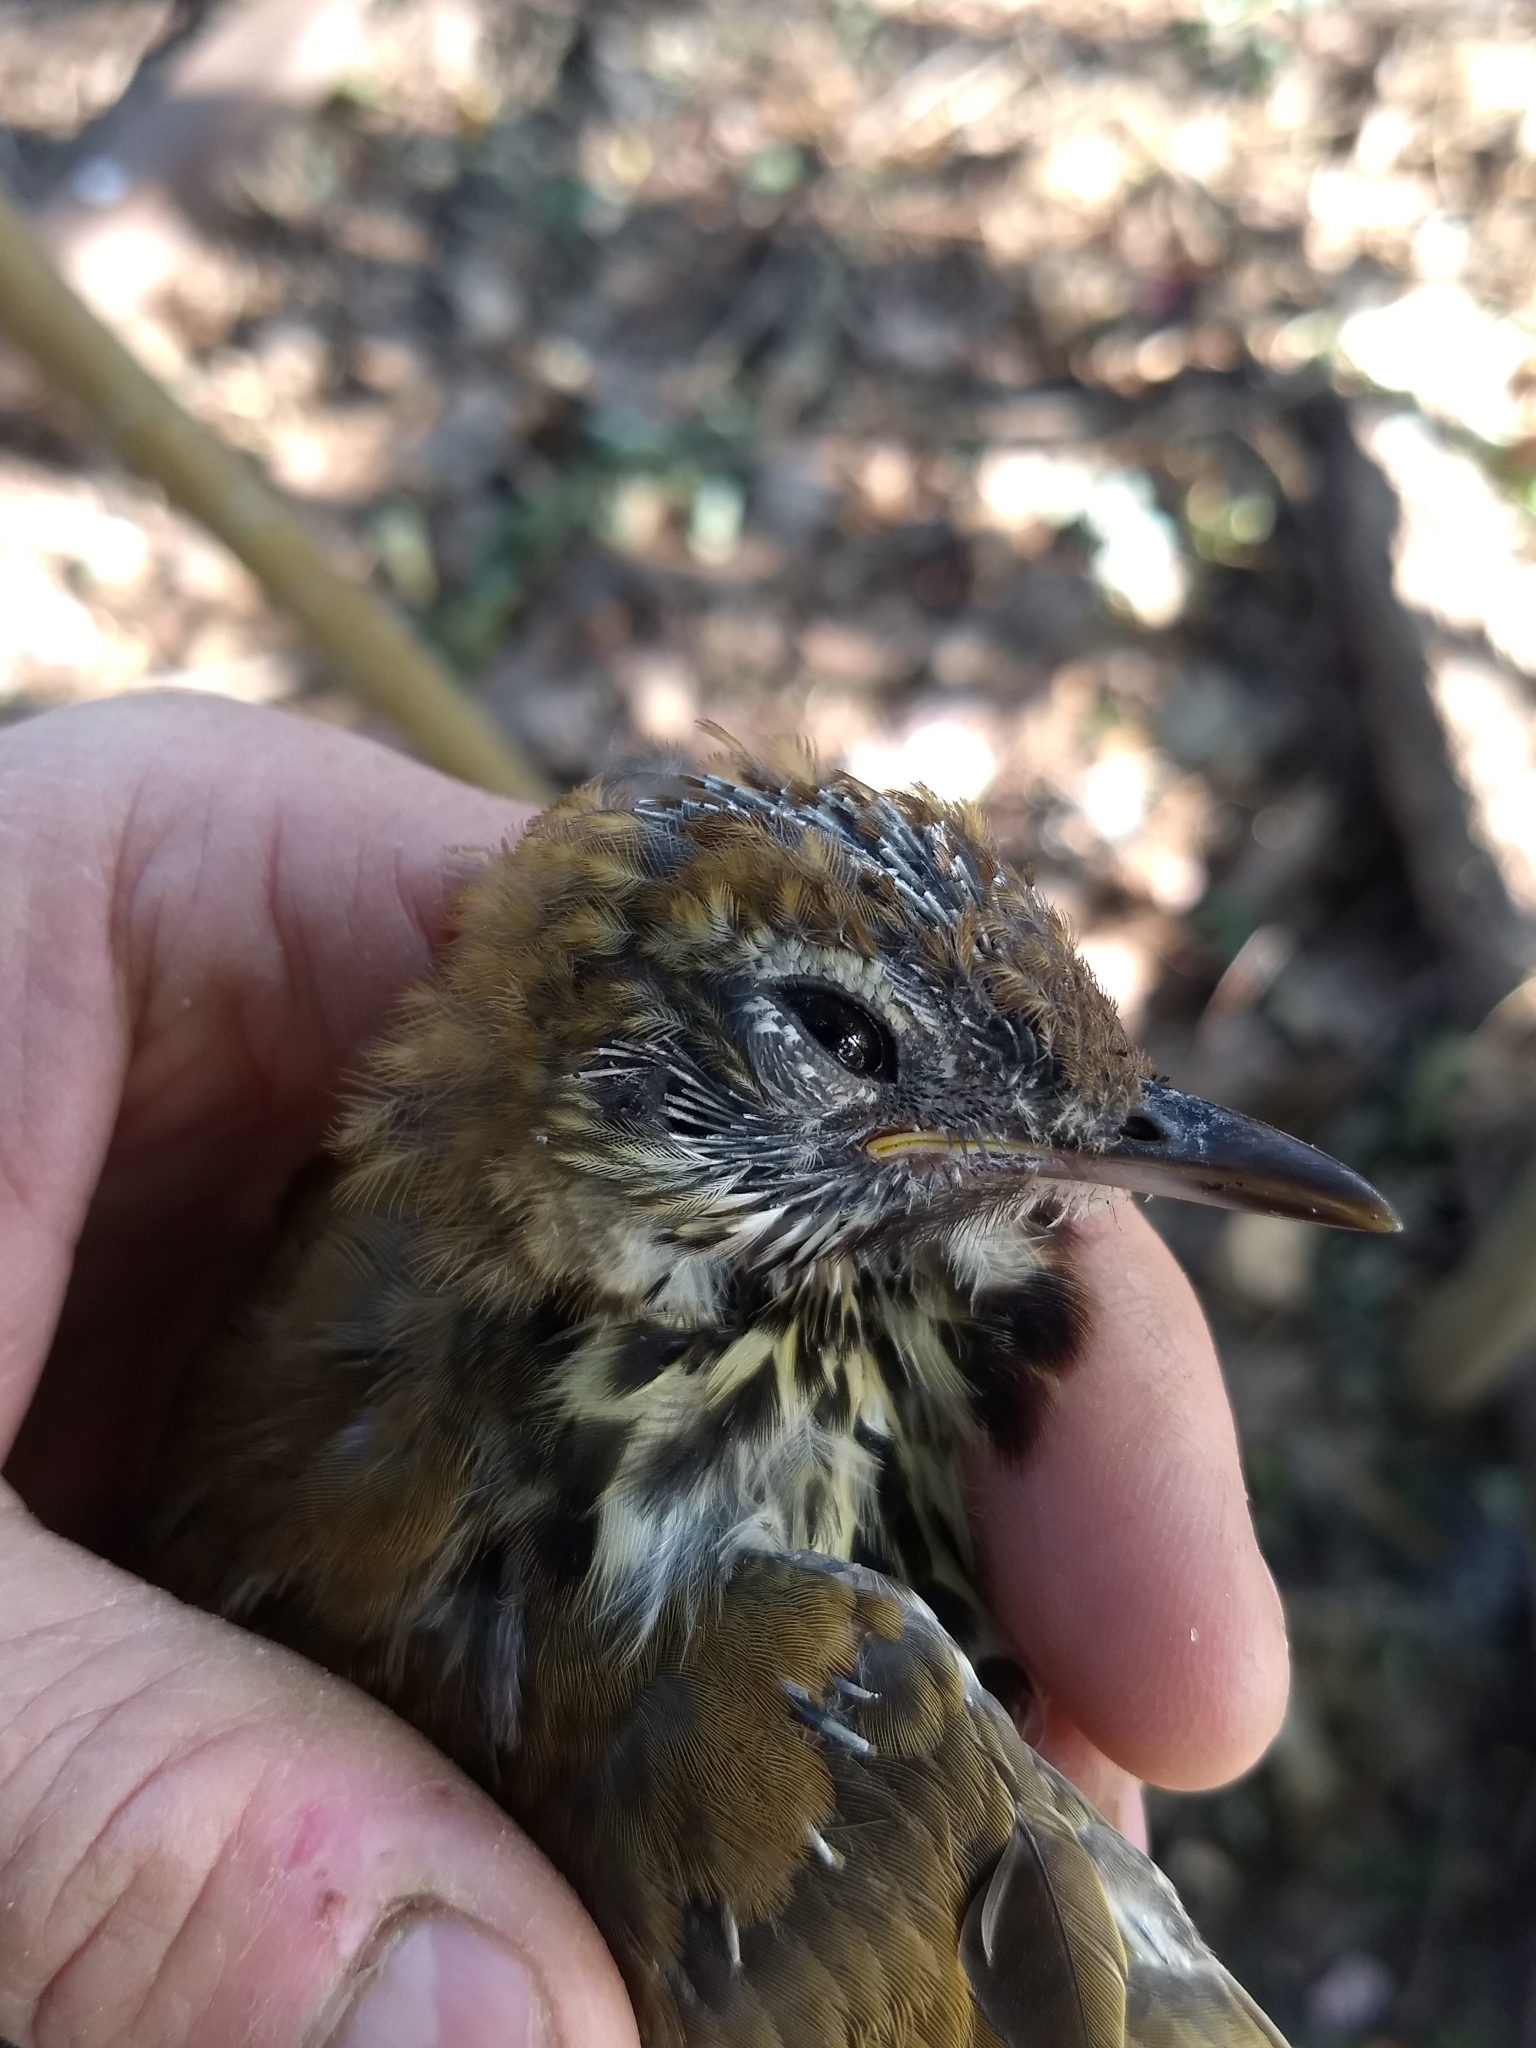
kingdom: Animalia
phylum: Chordata
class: Aves
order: Passeriformes
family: Turdidae
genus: Hylocichla
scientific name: Hylocichla mustelina
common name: Wood thrush
